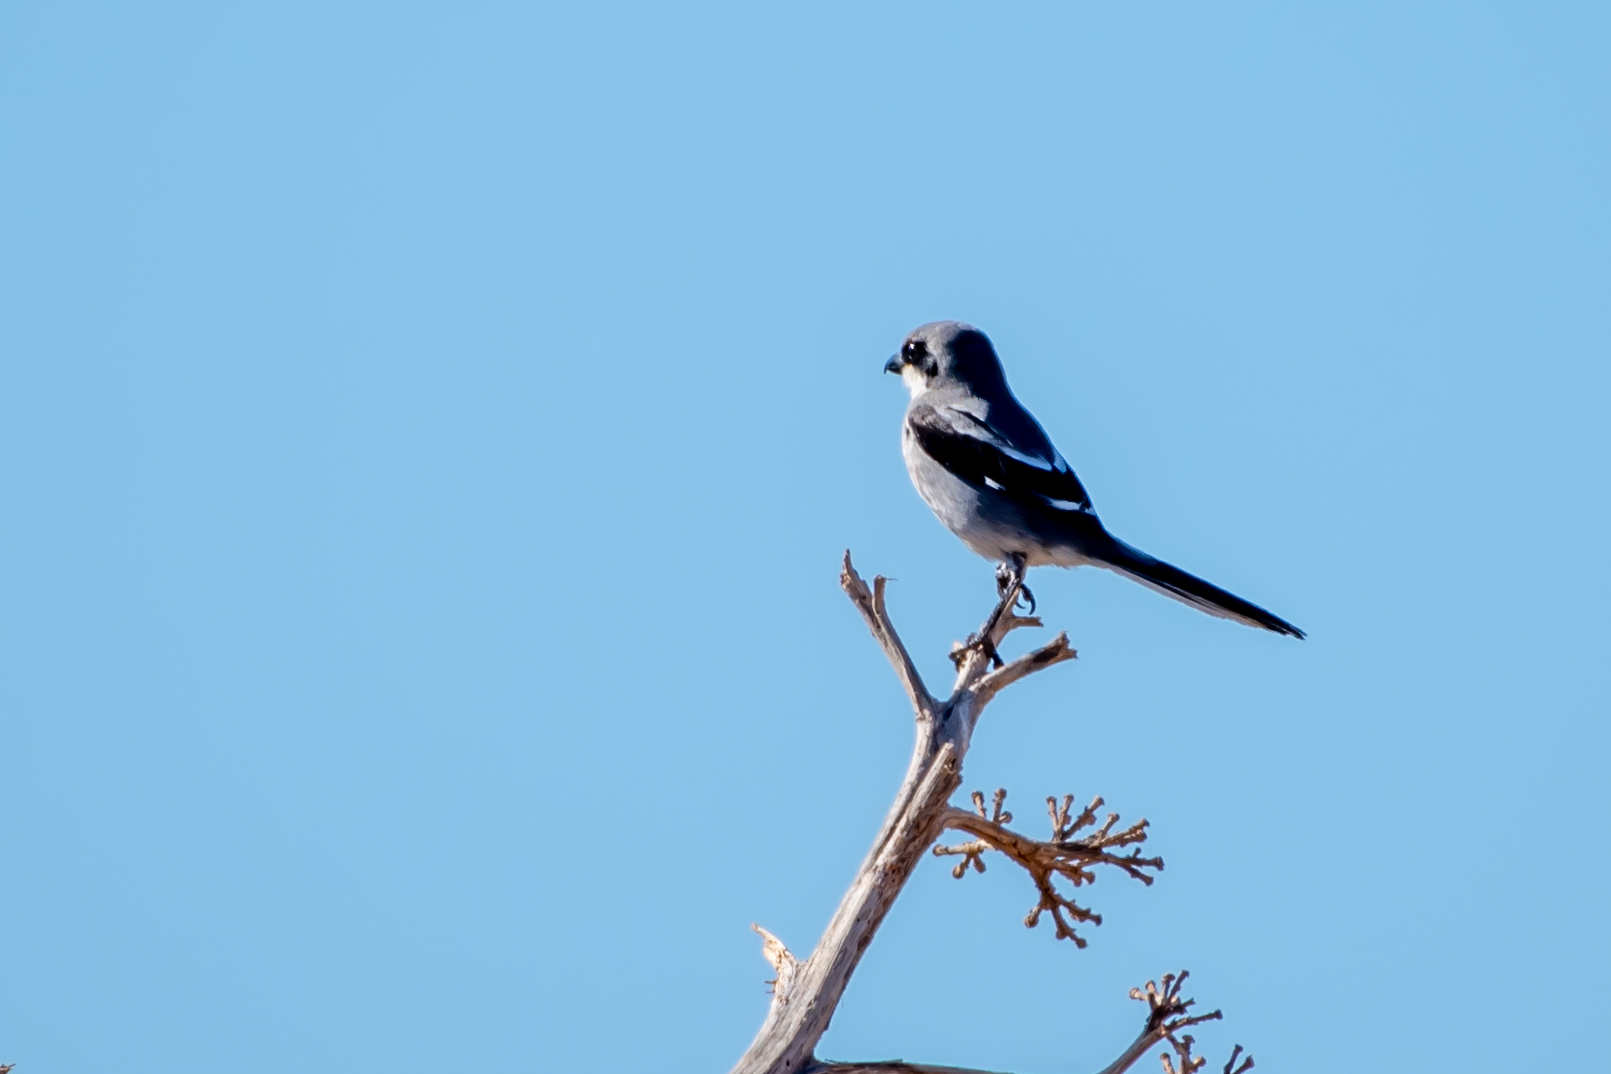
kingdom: Animalia
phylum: Chordata
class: Aves
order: Passeriformes
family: Laniidae
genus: Lanius
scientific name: Lanius excubitor
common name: Great grey shrike
